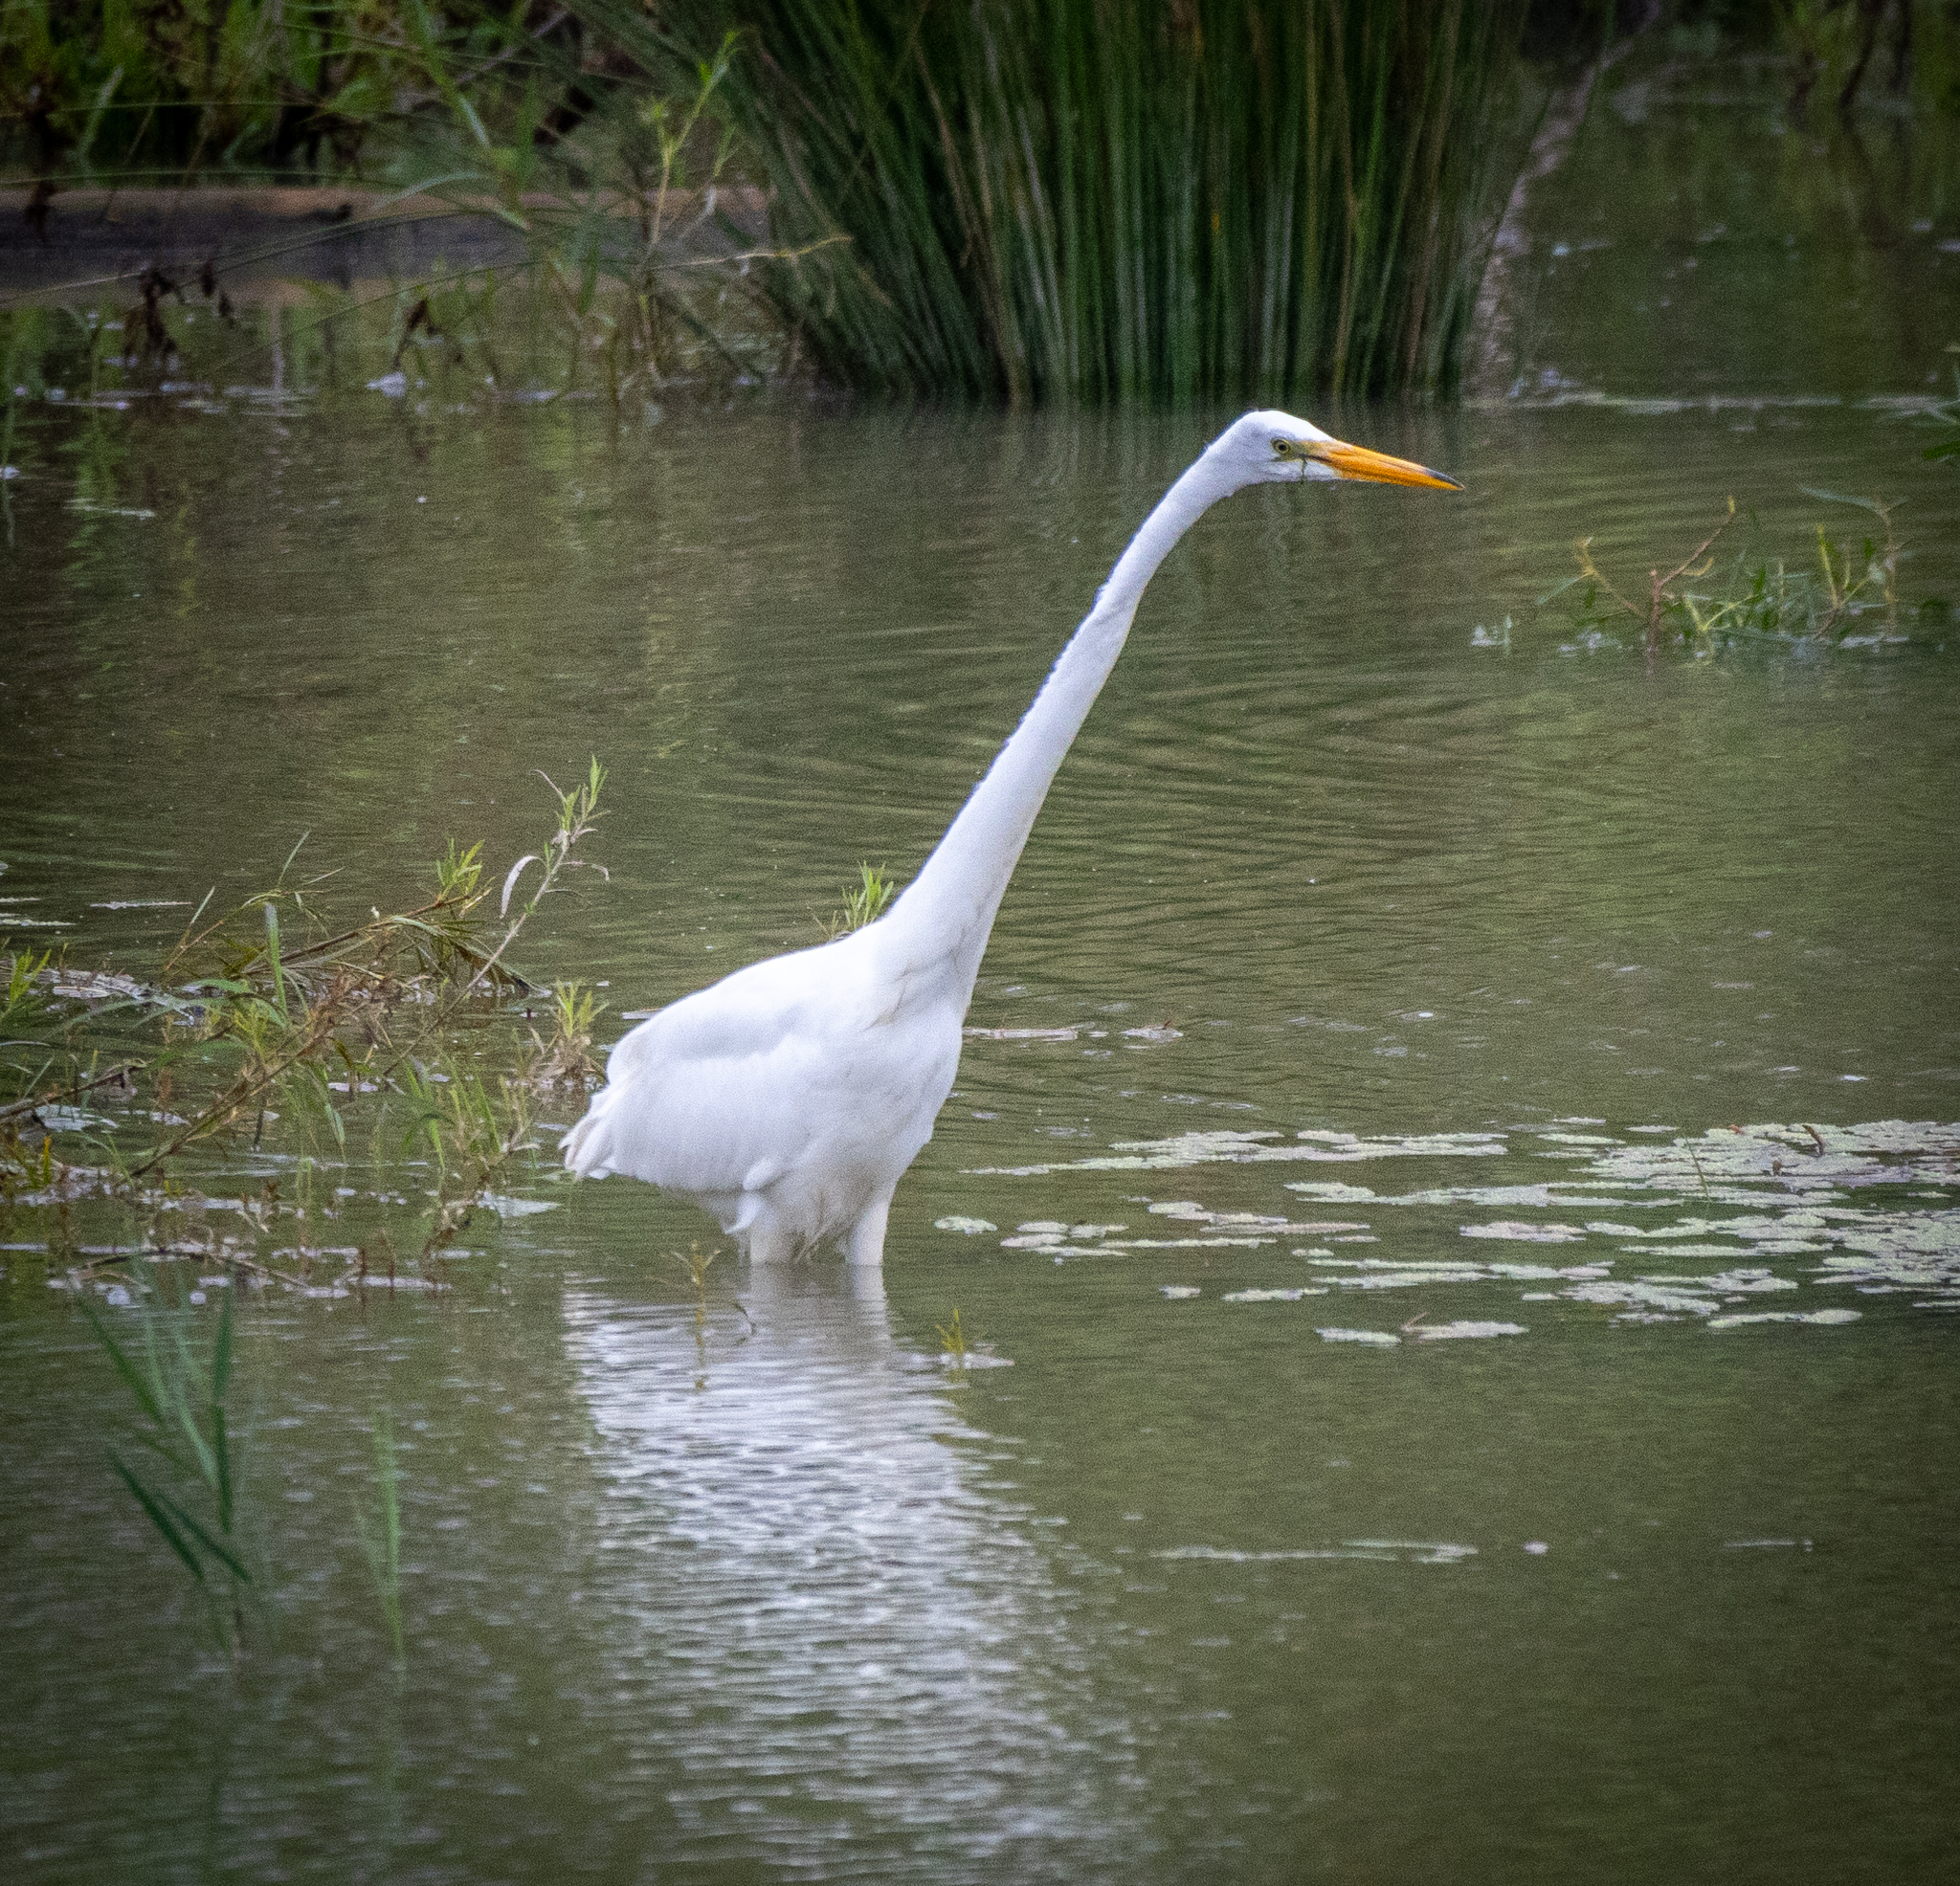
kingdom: Animalia
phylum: Chordata
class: Aves
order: Pelecaniformes
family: Ardeidae
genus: Ardea
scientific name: Ardea alba
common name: Great egret
